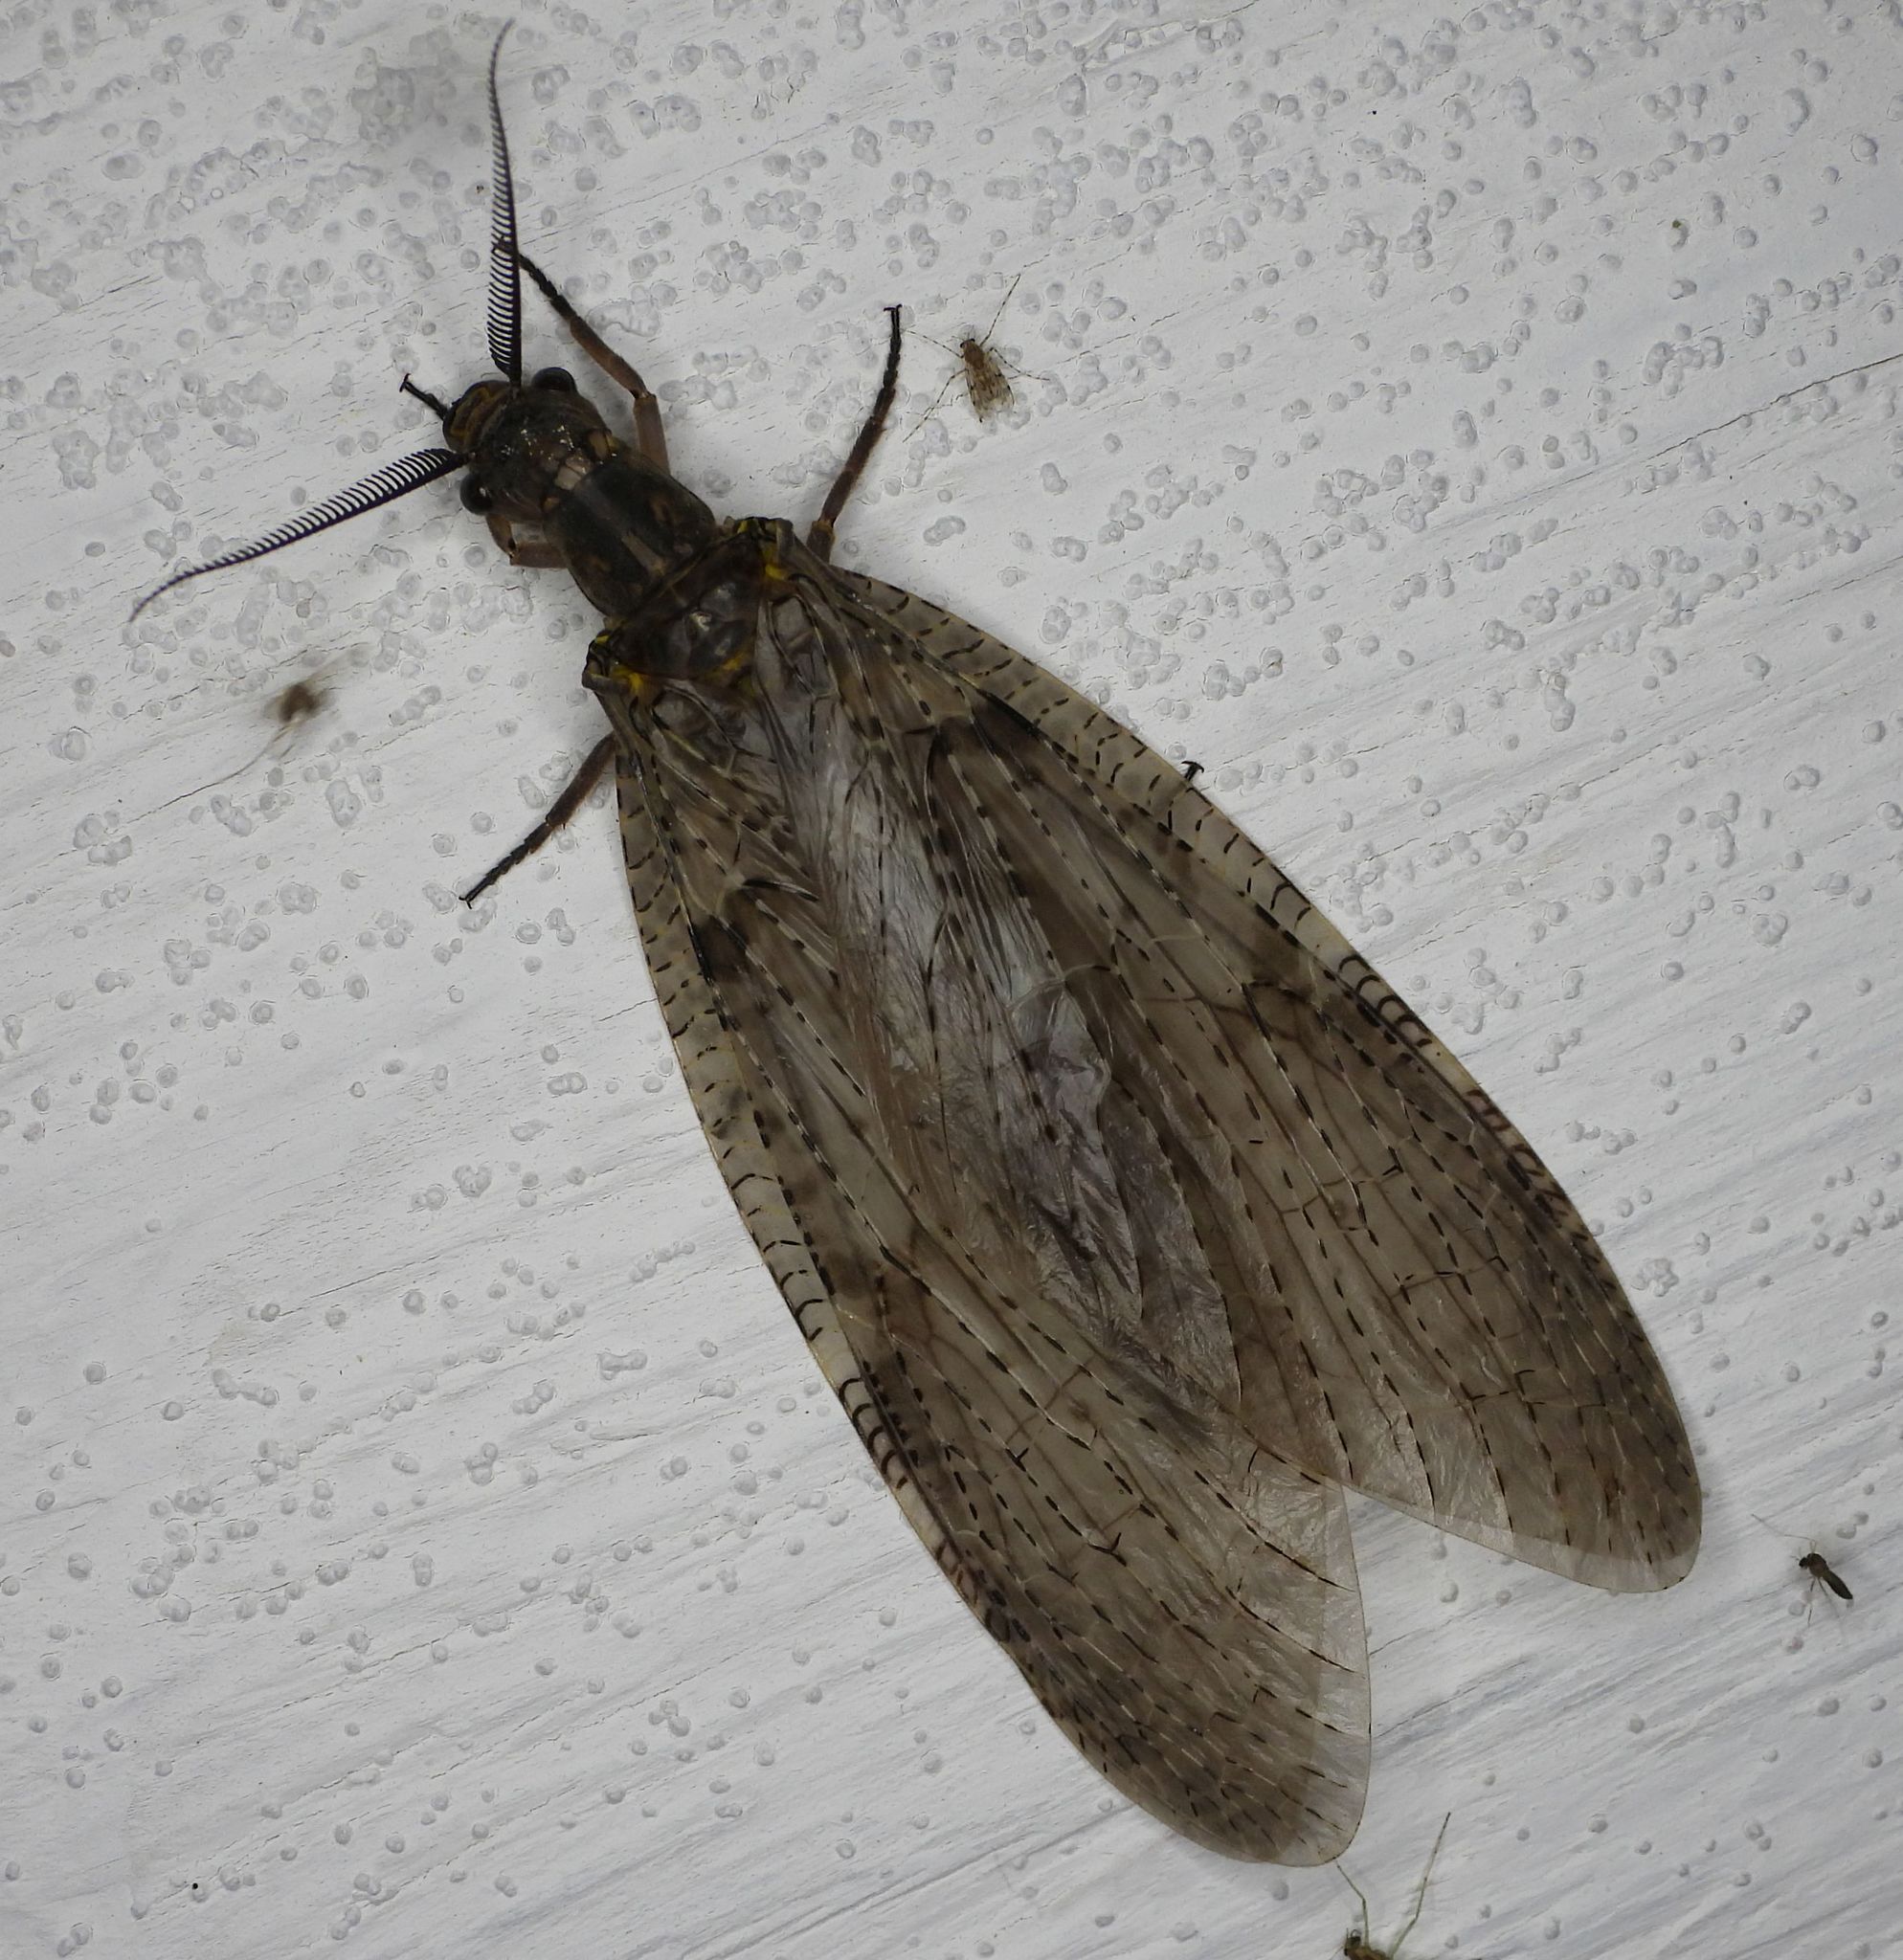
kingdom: Animalia
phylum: Arthropoda
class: Insecta
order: Megaloptera
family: Corydalidae
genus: Chauliodes
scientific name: Chauliodes pectinicornis
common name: Summer fishfly
